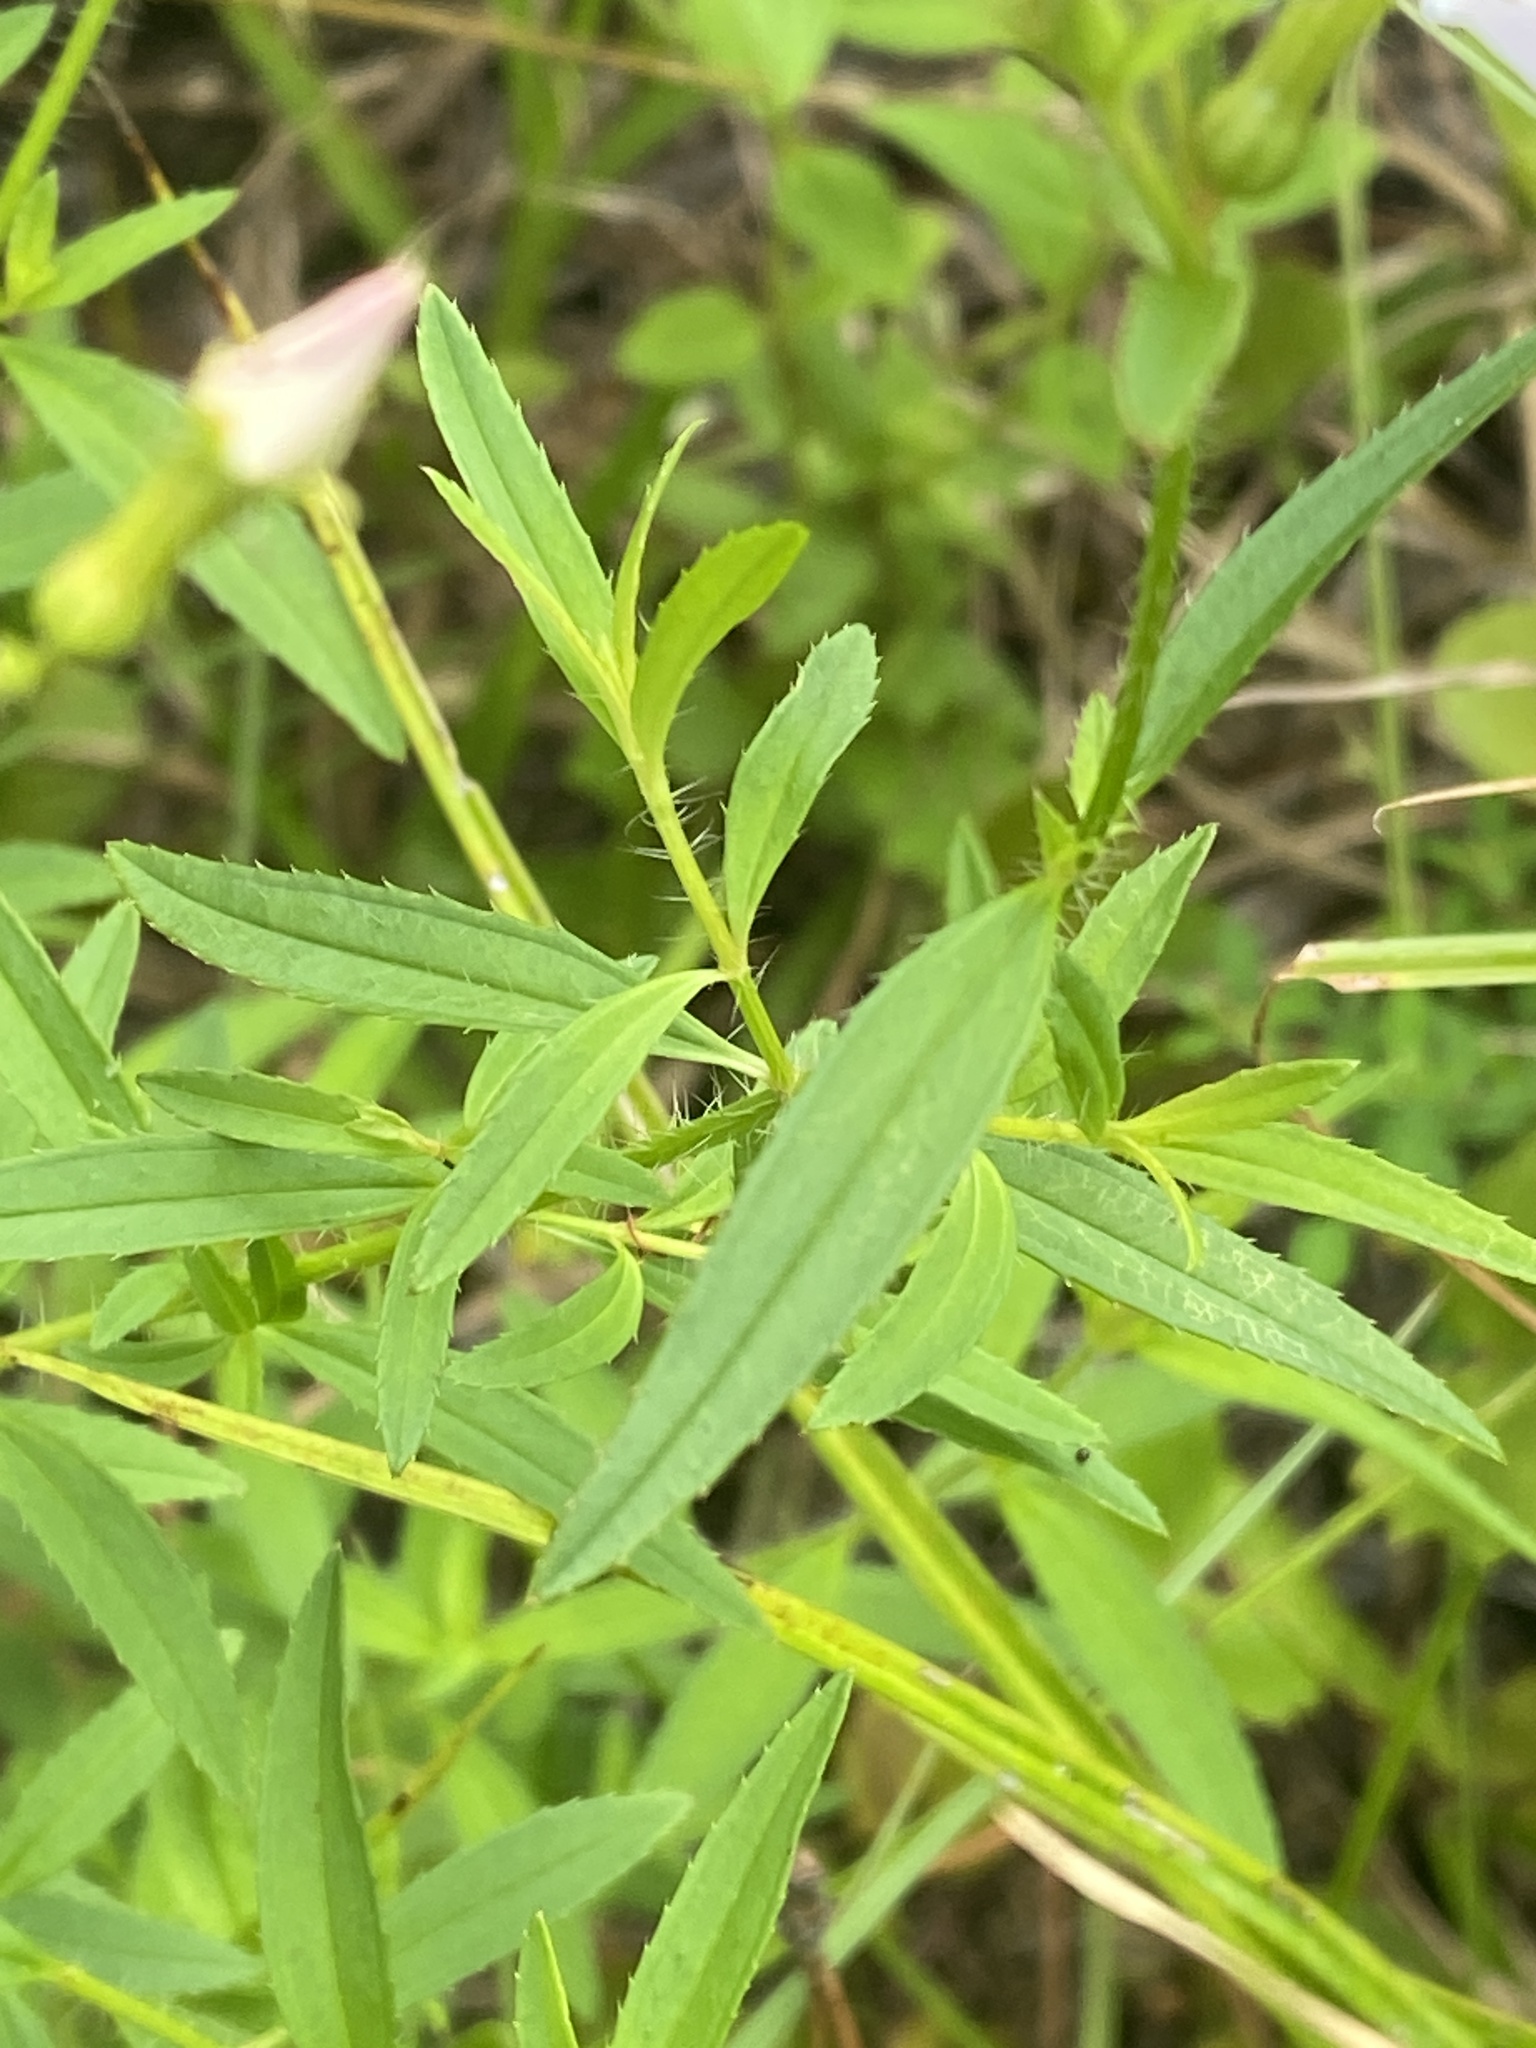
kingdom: Plantae
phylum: Tracheophyta
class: Magnoliopsida
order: Myrtales
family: Melastomataceae
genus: Rhexia
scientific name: Rhexia mariana
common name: Dull meadow-pitcher
